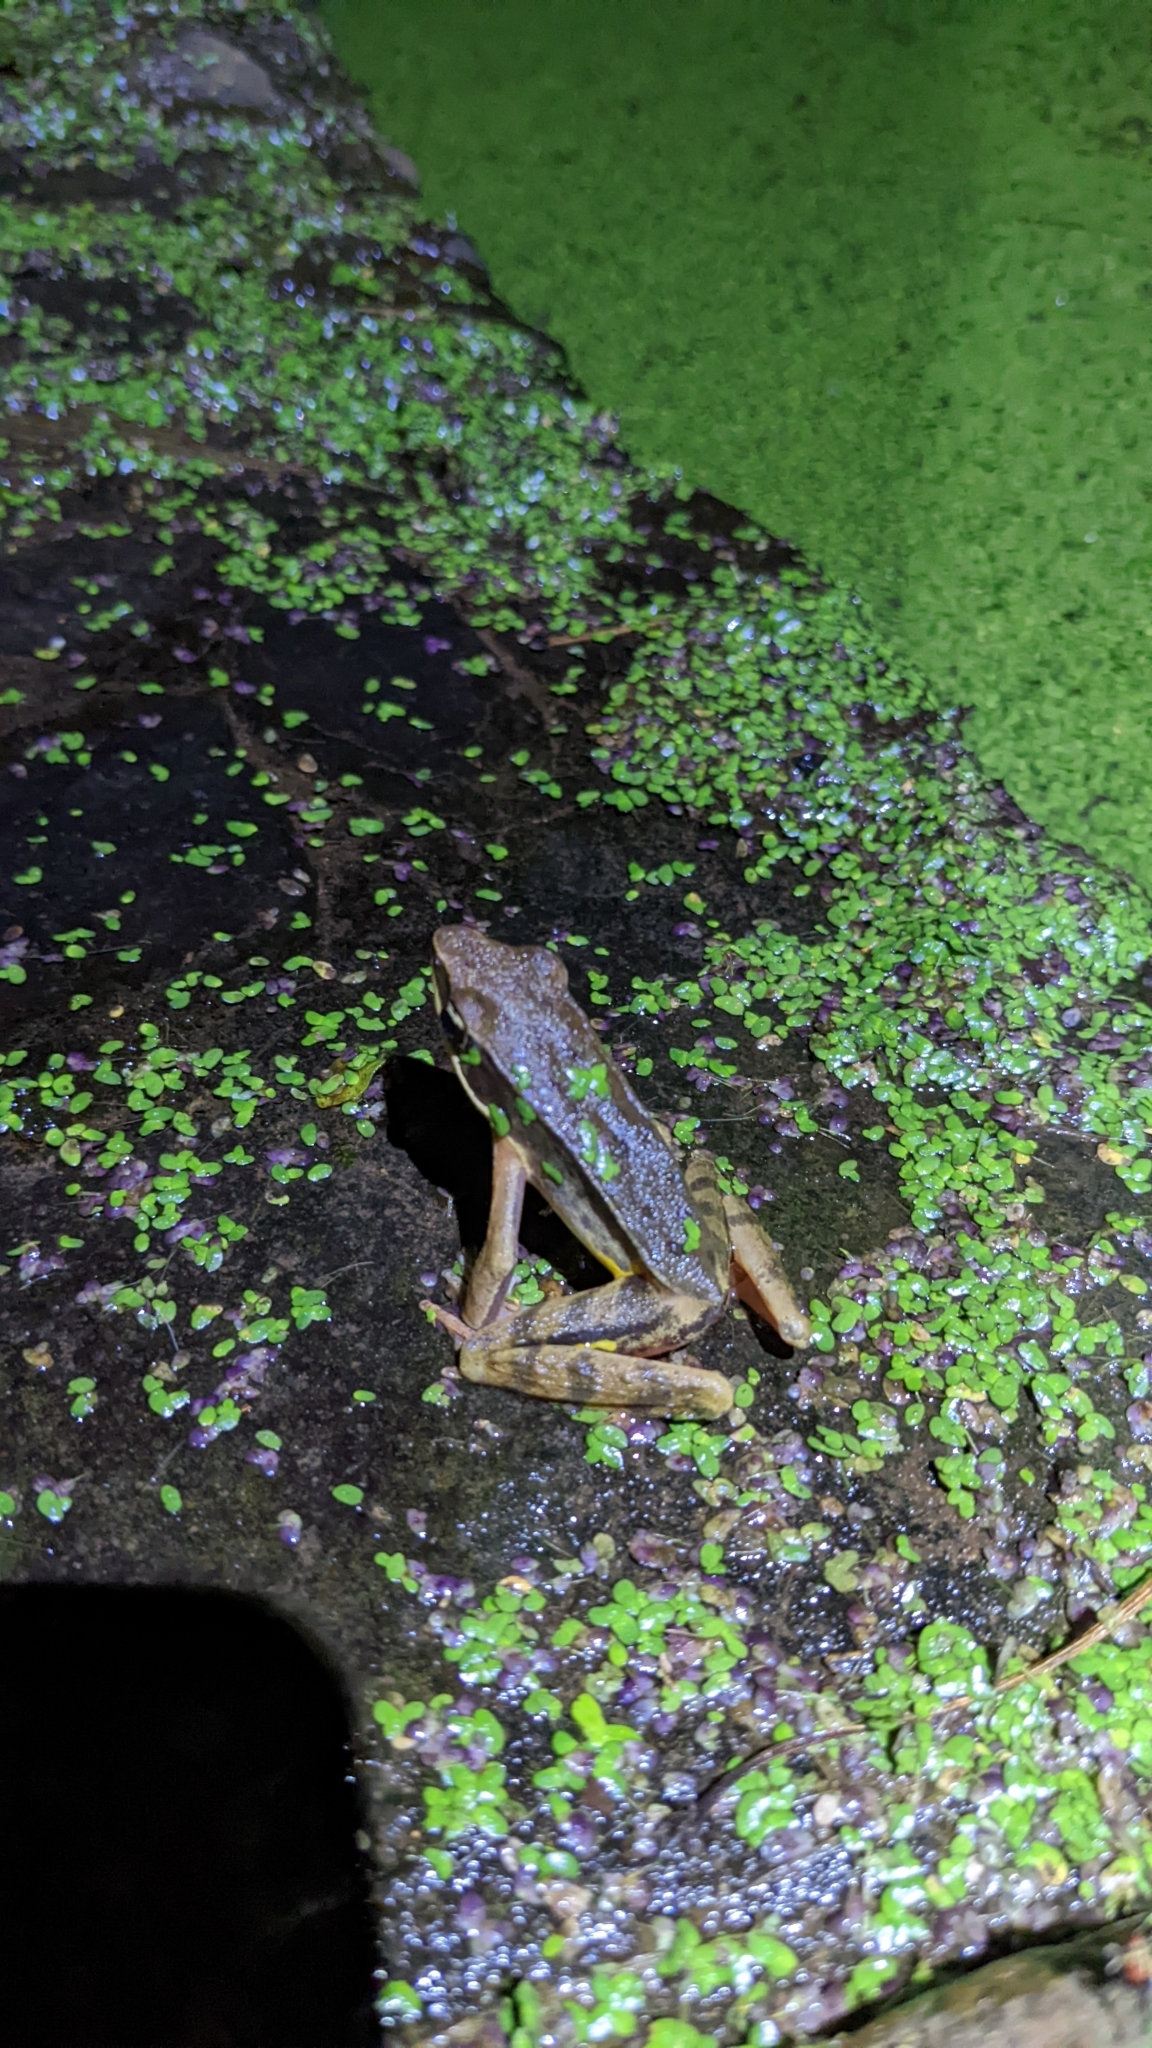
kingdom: Animalia
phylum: Chordata
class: Amphibia
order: Anura
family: Ranidae
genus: Lithobates
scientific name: Lithobates warszewitschii
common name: Warszewitsch's frog
